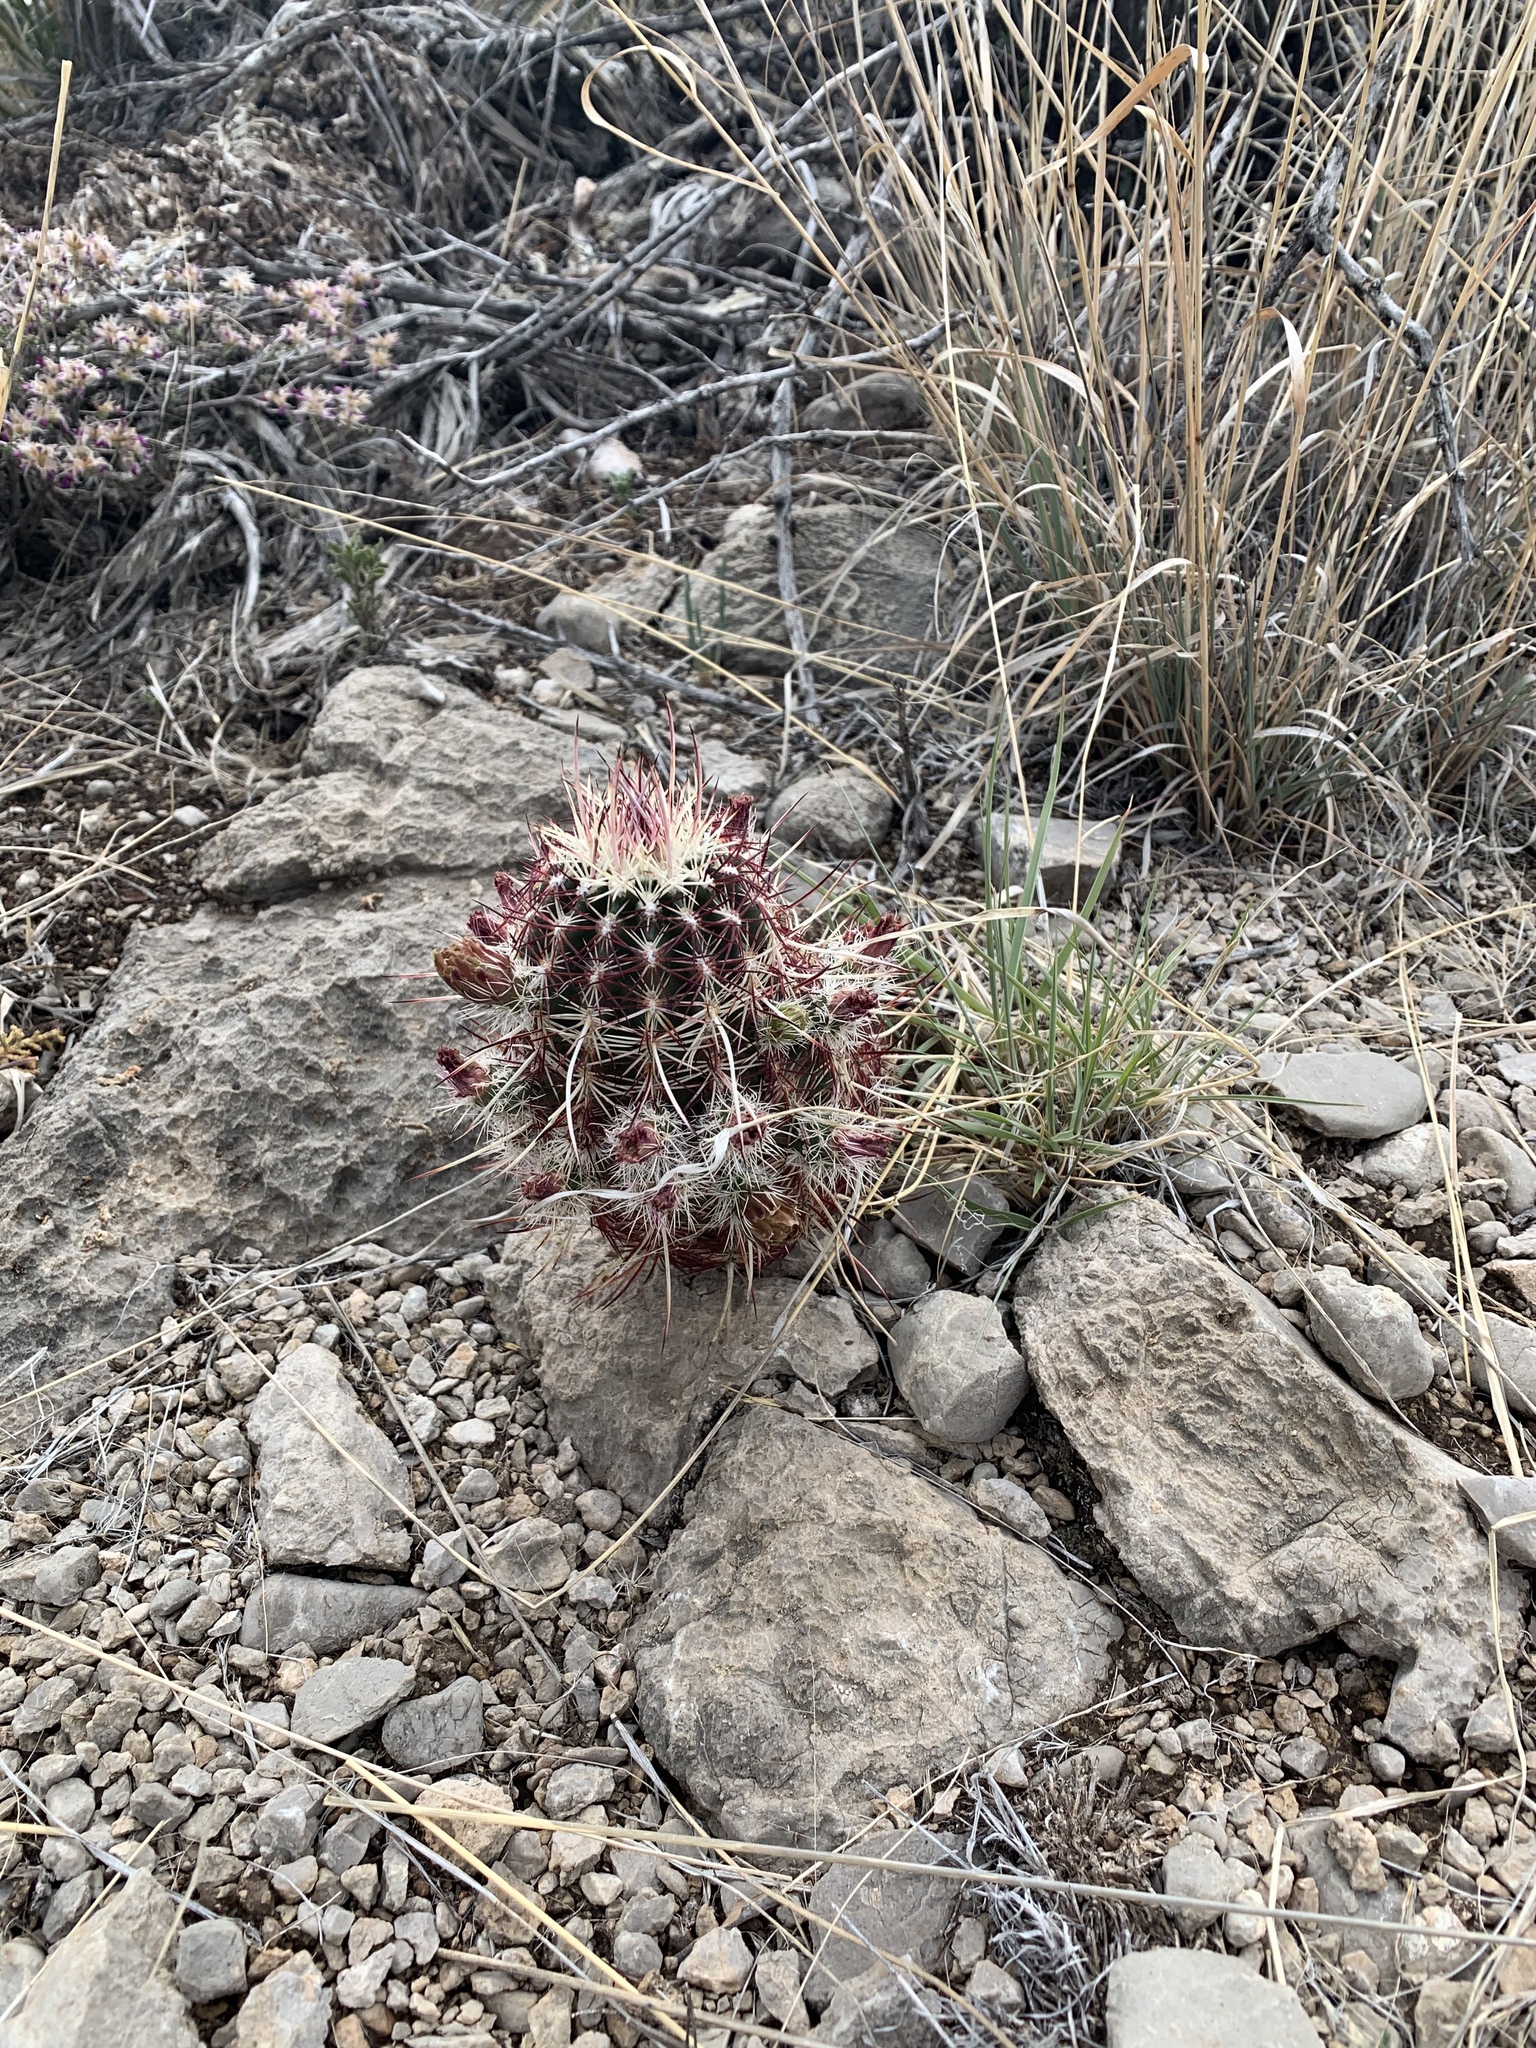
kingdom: Plantae
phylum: Tracheophyta
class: Magnoliopsida
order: Caryophyllales
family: Cactaceae
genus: Echinocereus
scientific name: Echinocereus viridiflorus
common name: Nylon hedgehog cactus
